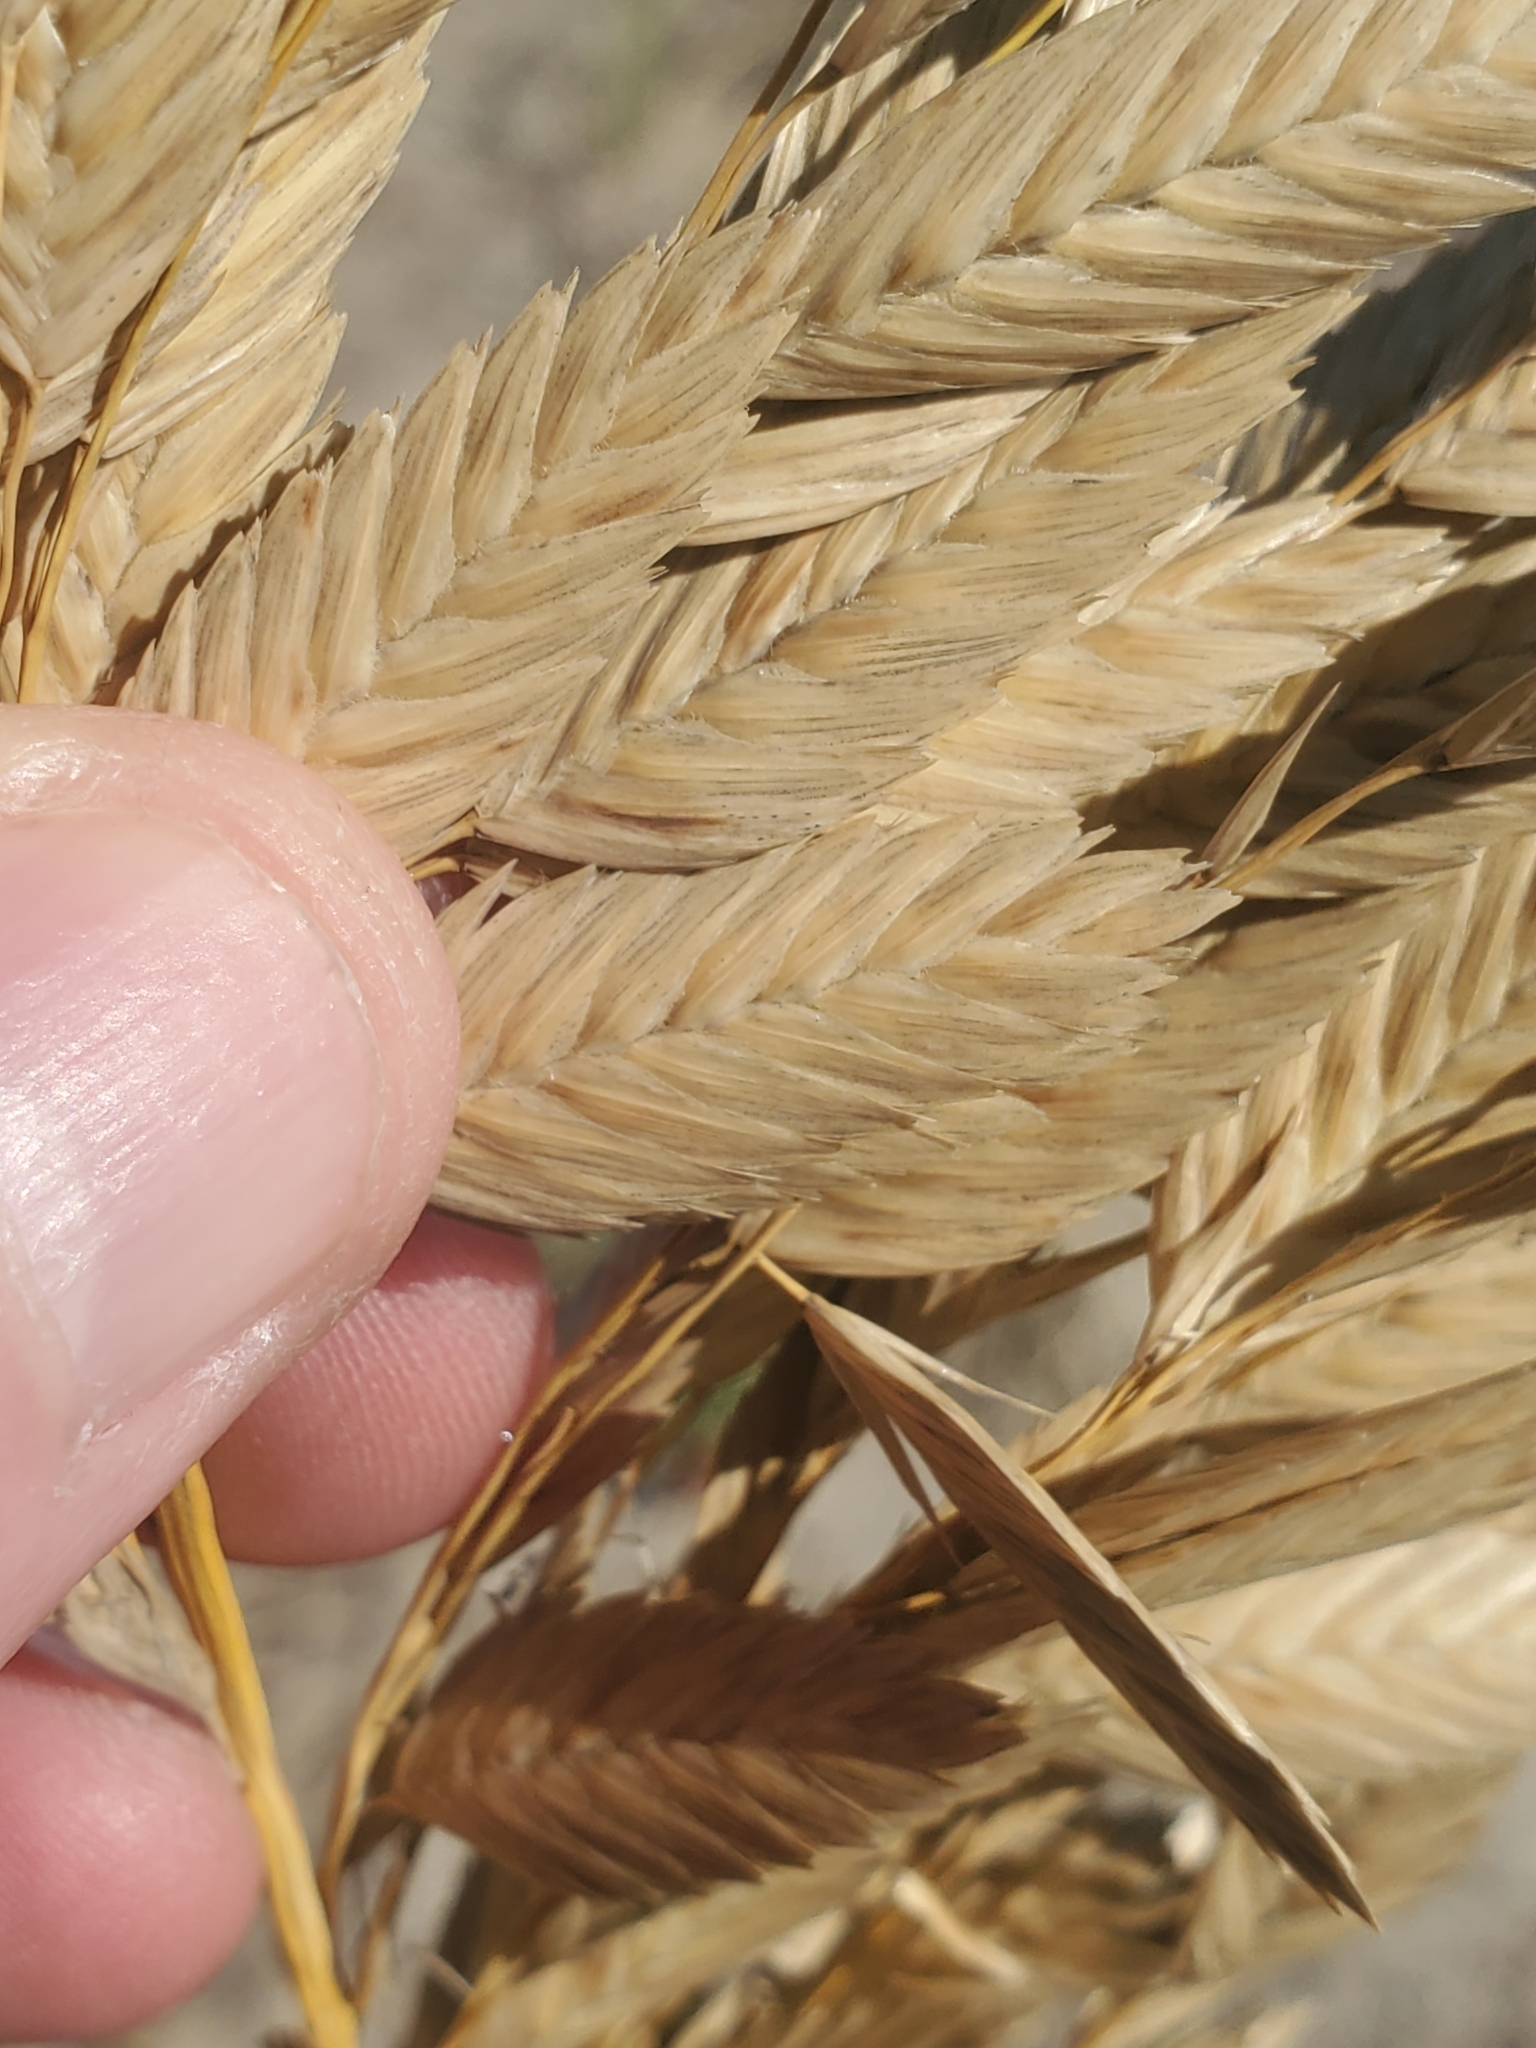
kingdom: Plantae
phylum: Tracheophyta
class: Liliopsida
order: Poales
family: Poaceae
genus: Uniola
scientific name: Uniola paniculata
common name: Seaside-oats
